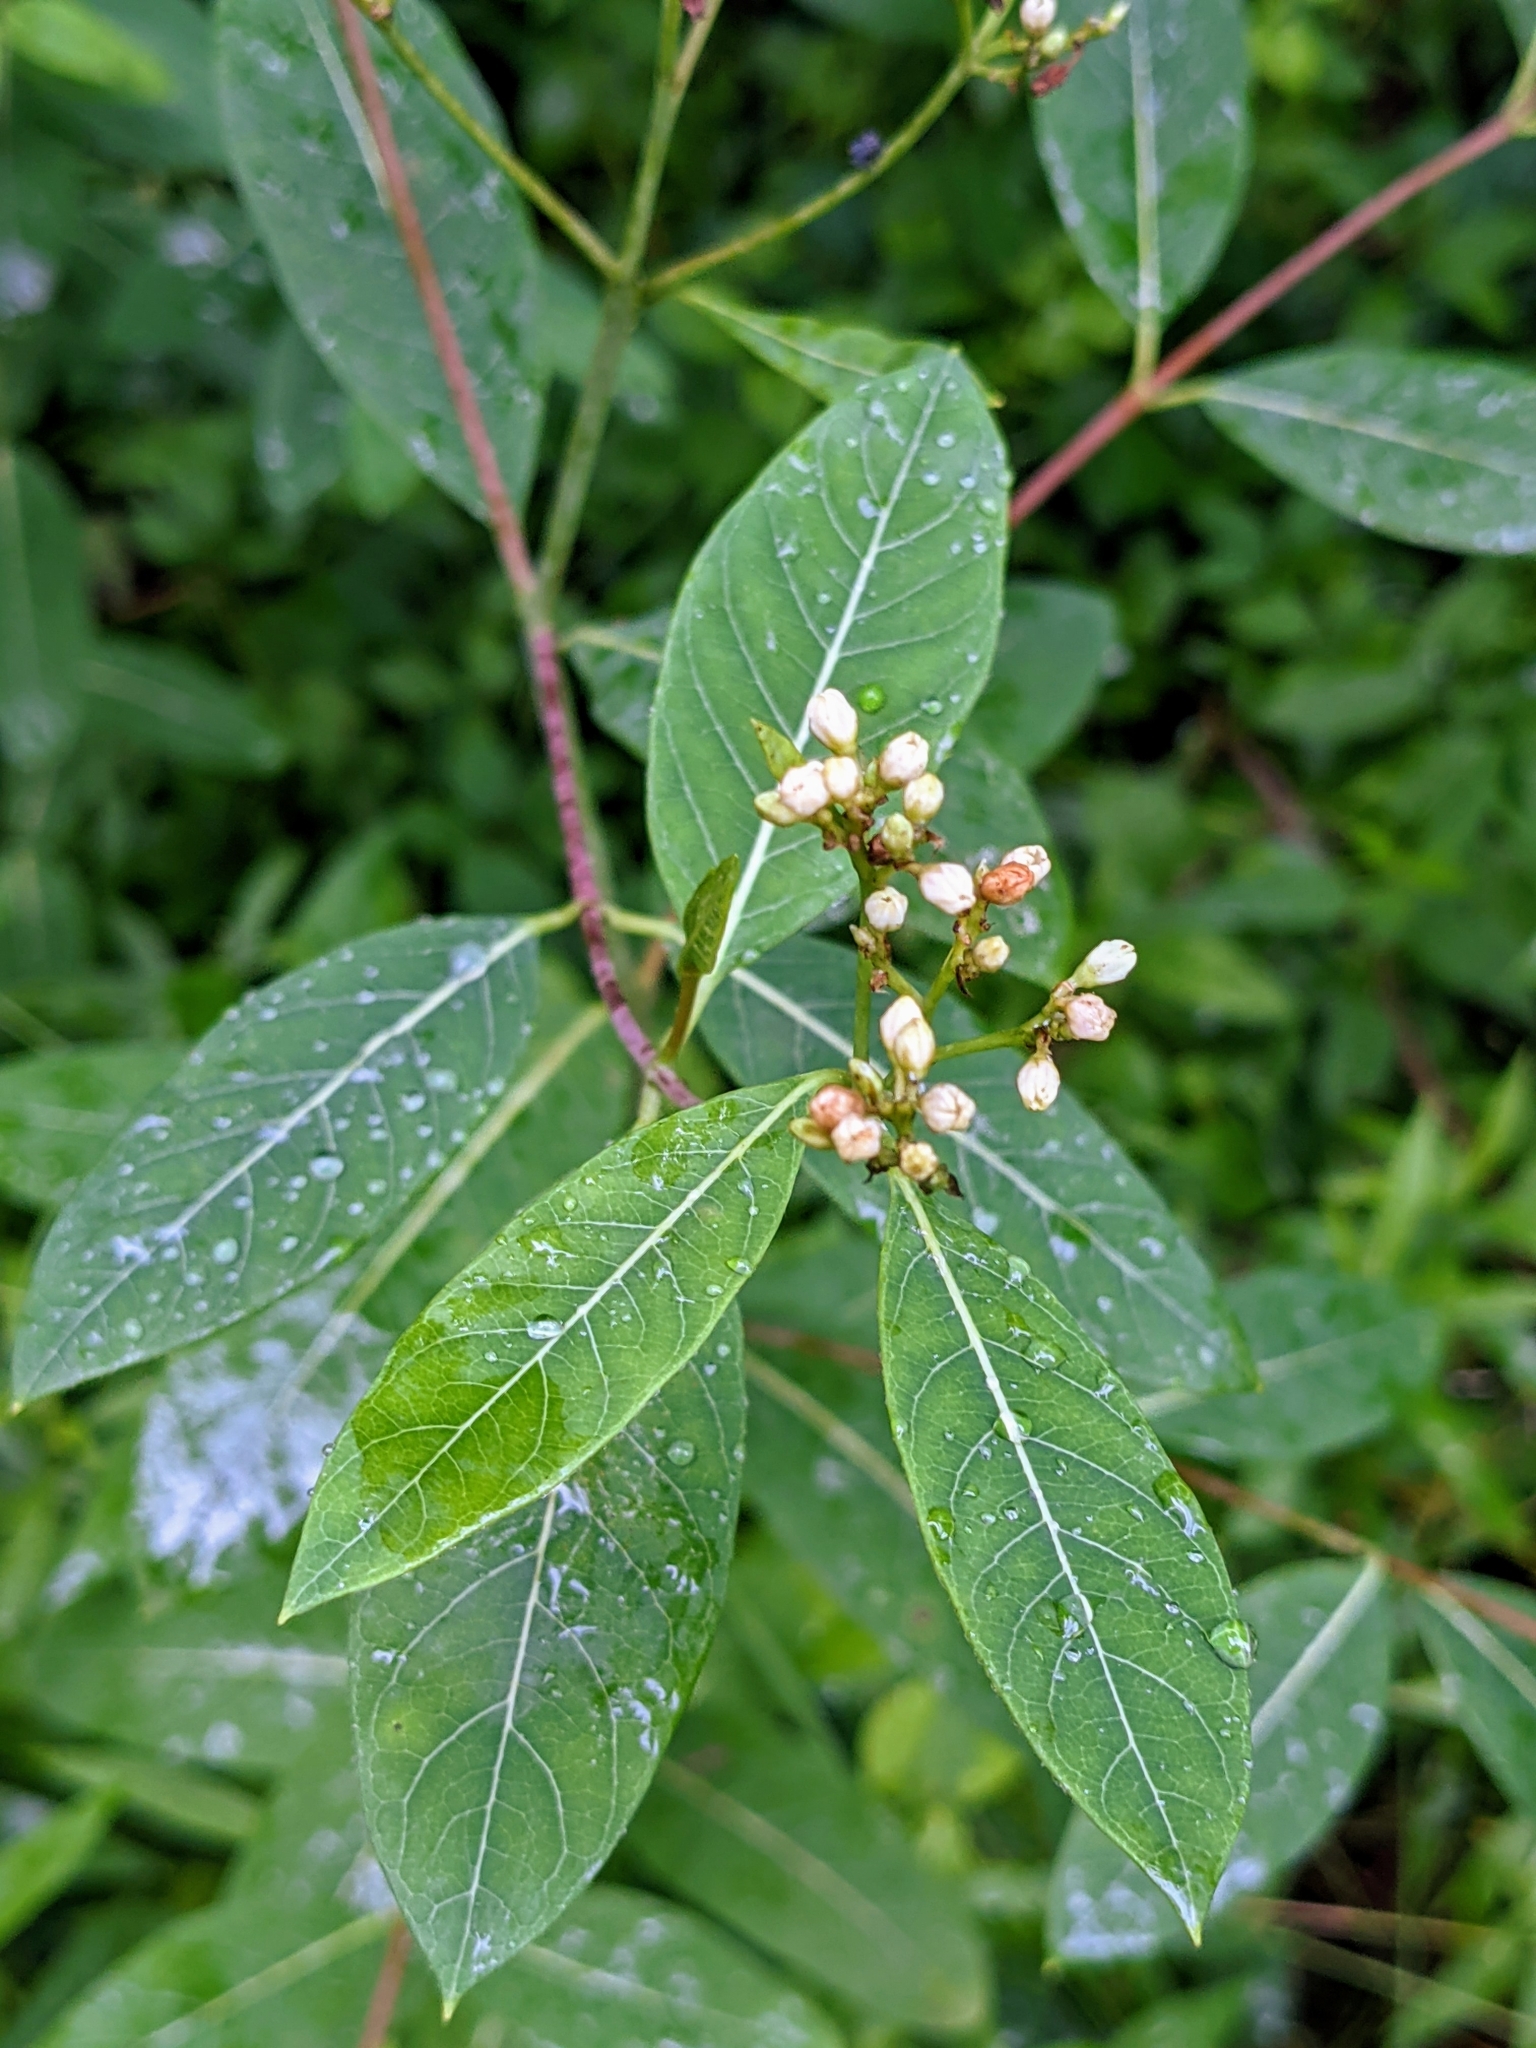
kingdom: Plantae
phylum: Tracheophyta
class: Magnoliopsida
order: Gentianales
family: Apocynaceae
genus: Apocynum
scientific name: Apocynum cannabinum
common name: Hemp dogbane
